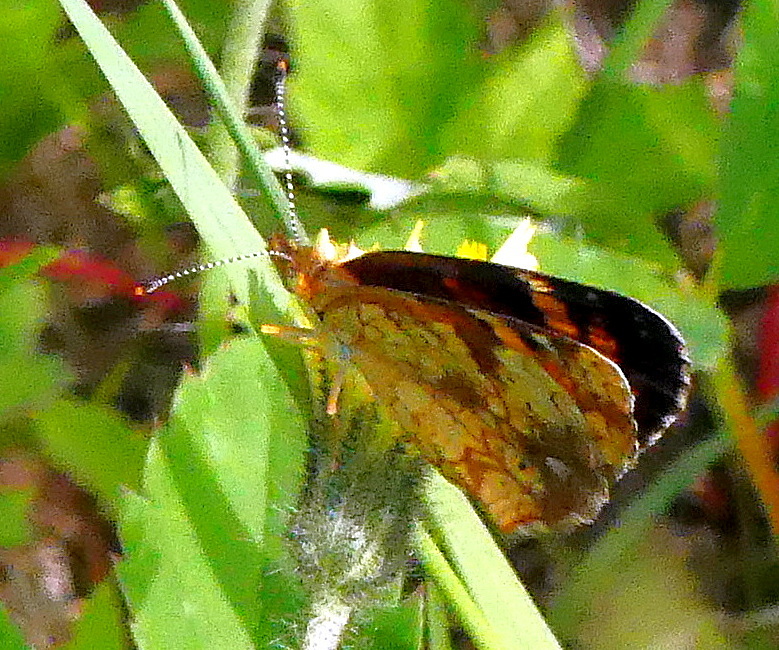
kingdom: Animalia
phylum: Arthropoda
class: Insecta
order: Lepidoptera
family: Nymphalidae
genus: Phyciodes
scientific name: Phyciodes tharos
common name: Pearl crescent
